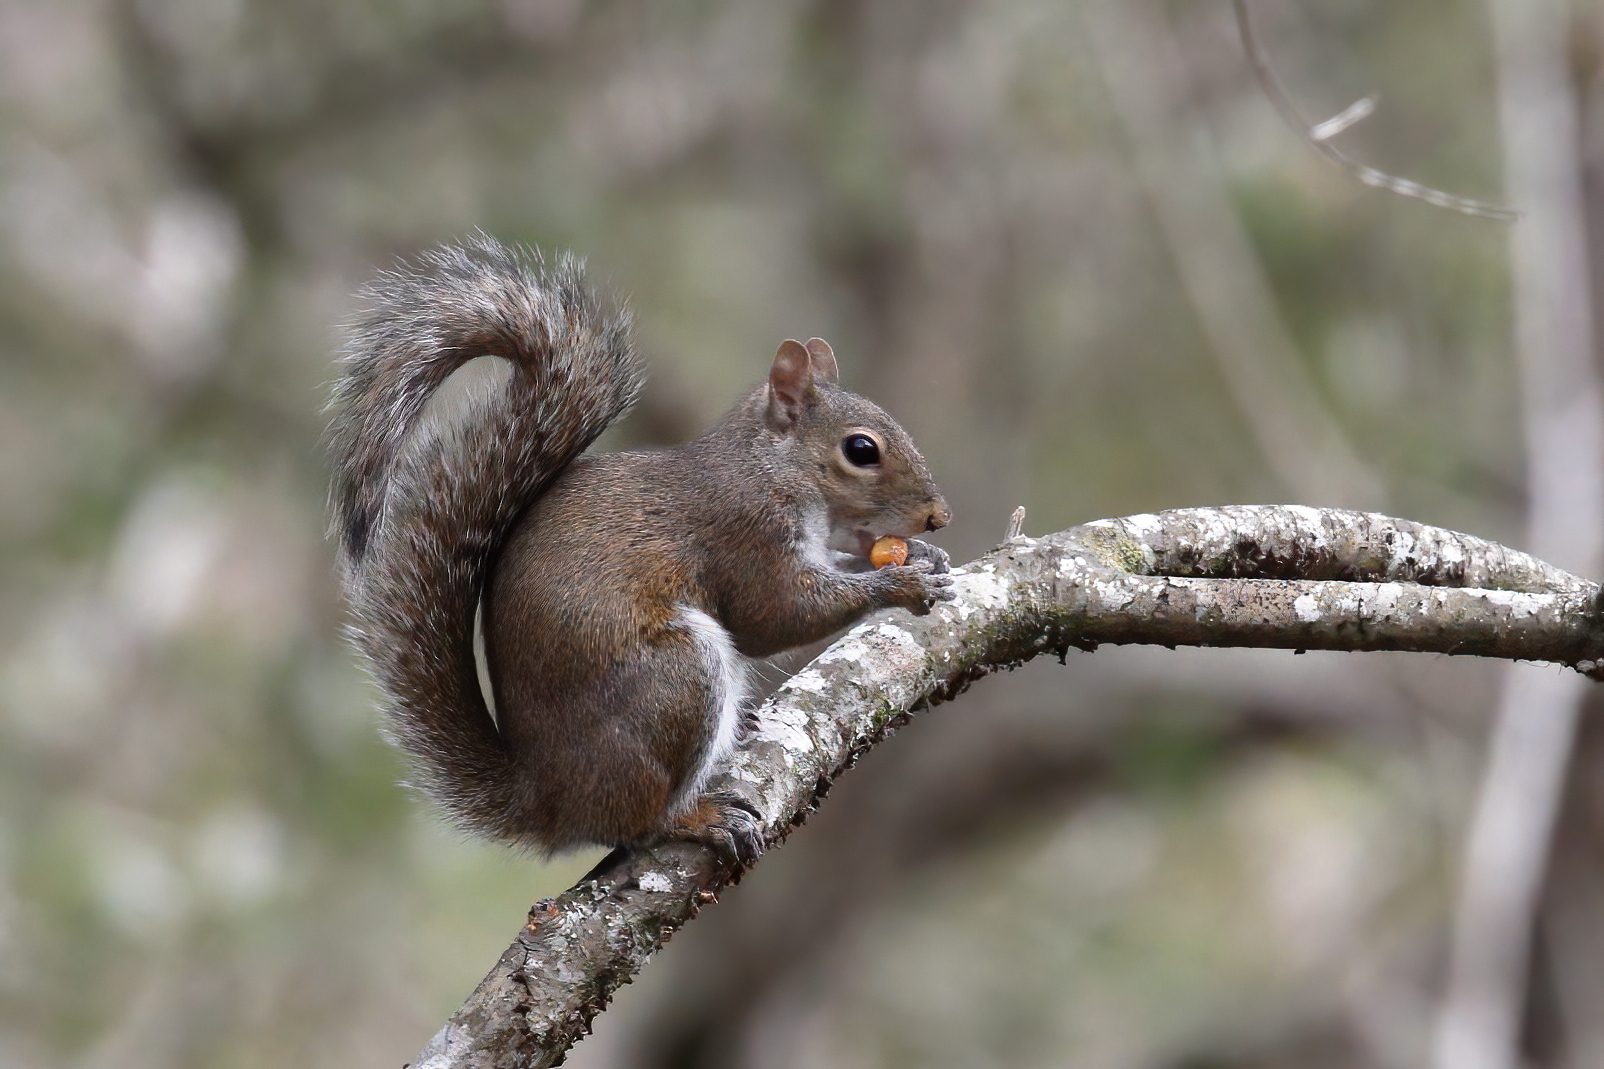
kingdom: Animalia
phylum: Chordata
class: Mammalia
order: Rodentia
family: Sciuridae
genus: Sciurus
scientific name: Sciurus carolinensis
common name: Eastern gray squirrel
